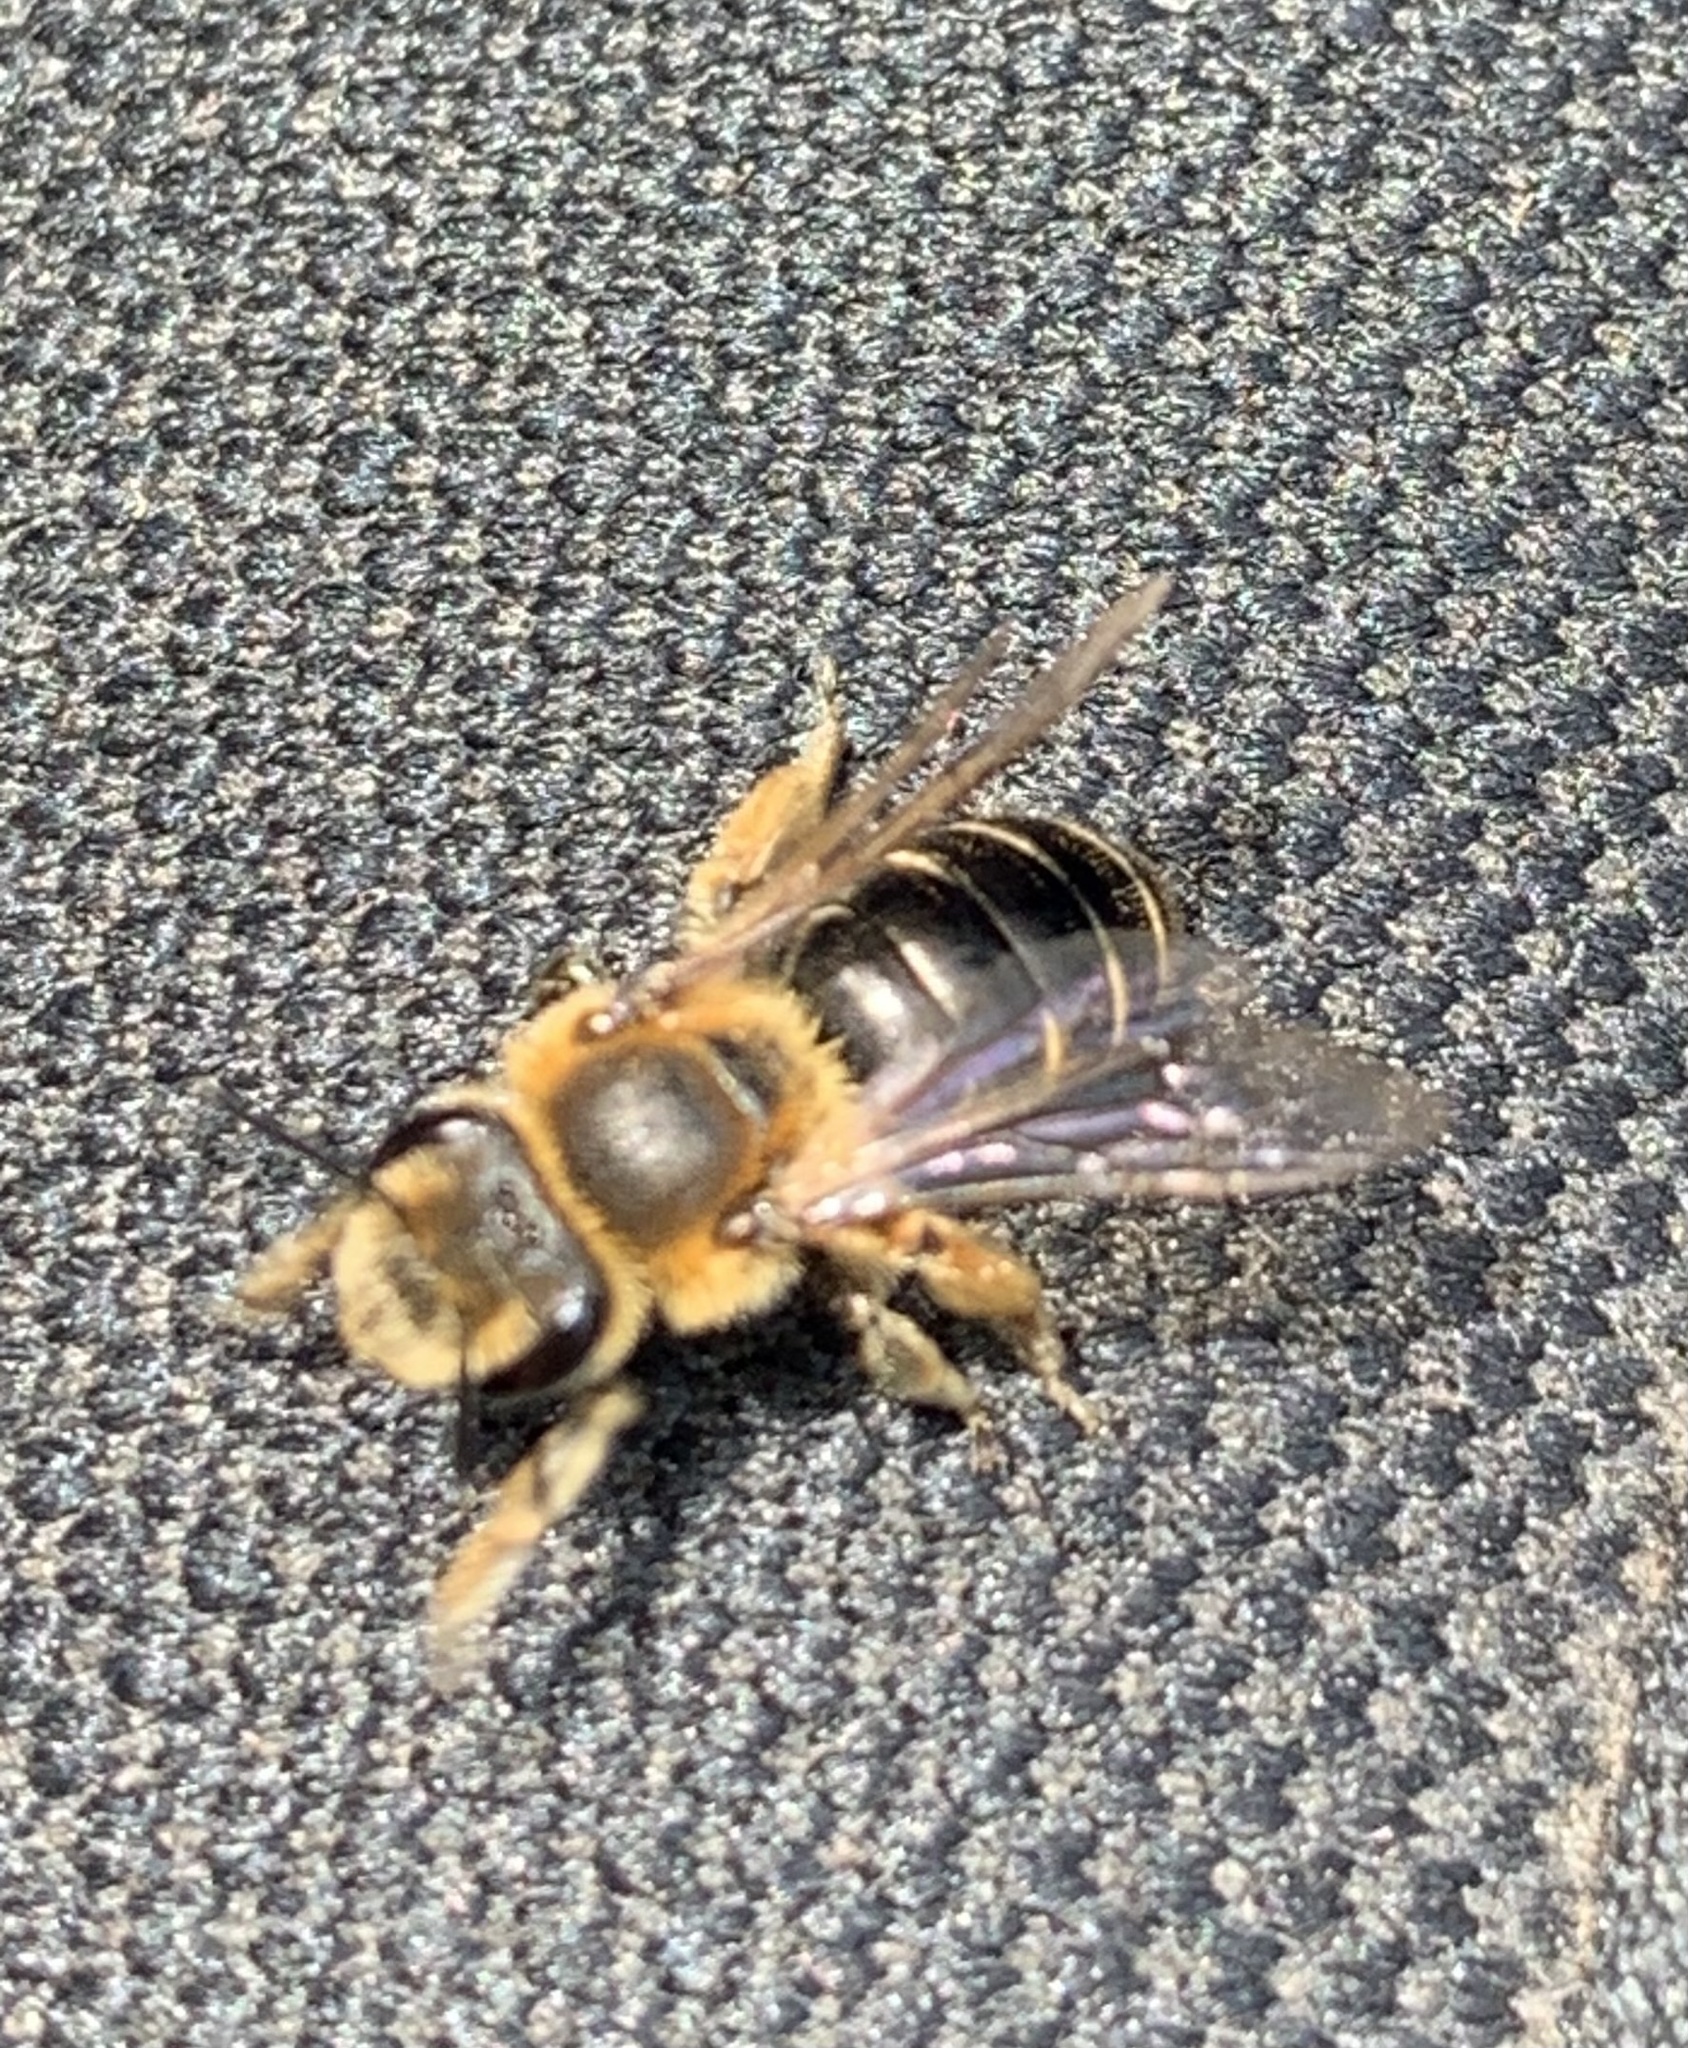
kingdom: Animalia
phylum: Arthropoda
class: Insecta
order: Hymenoptera
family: Andrenidae
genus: Andrena
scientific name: Andrena wilkella
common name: Wilke's mining bee
